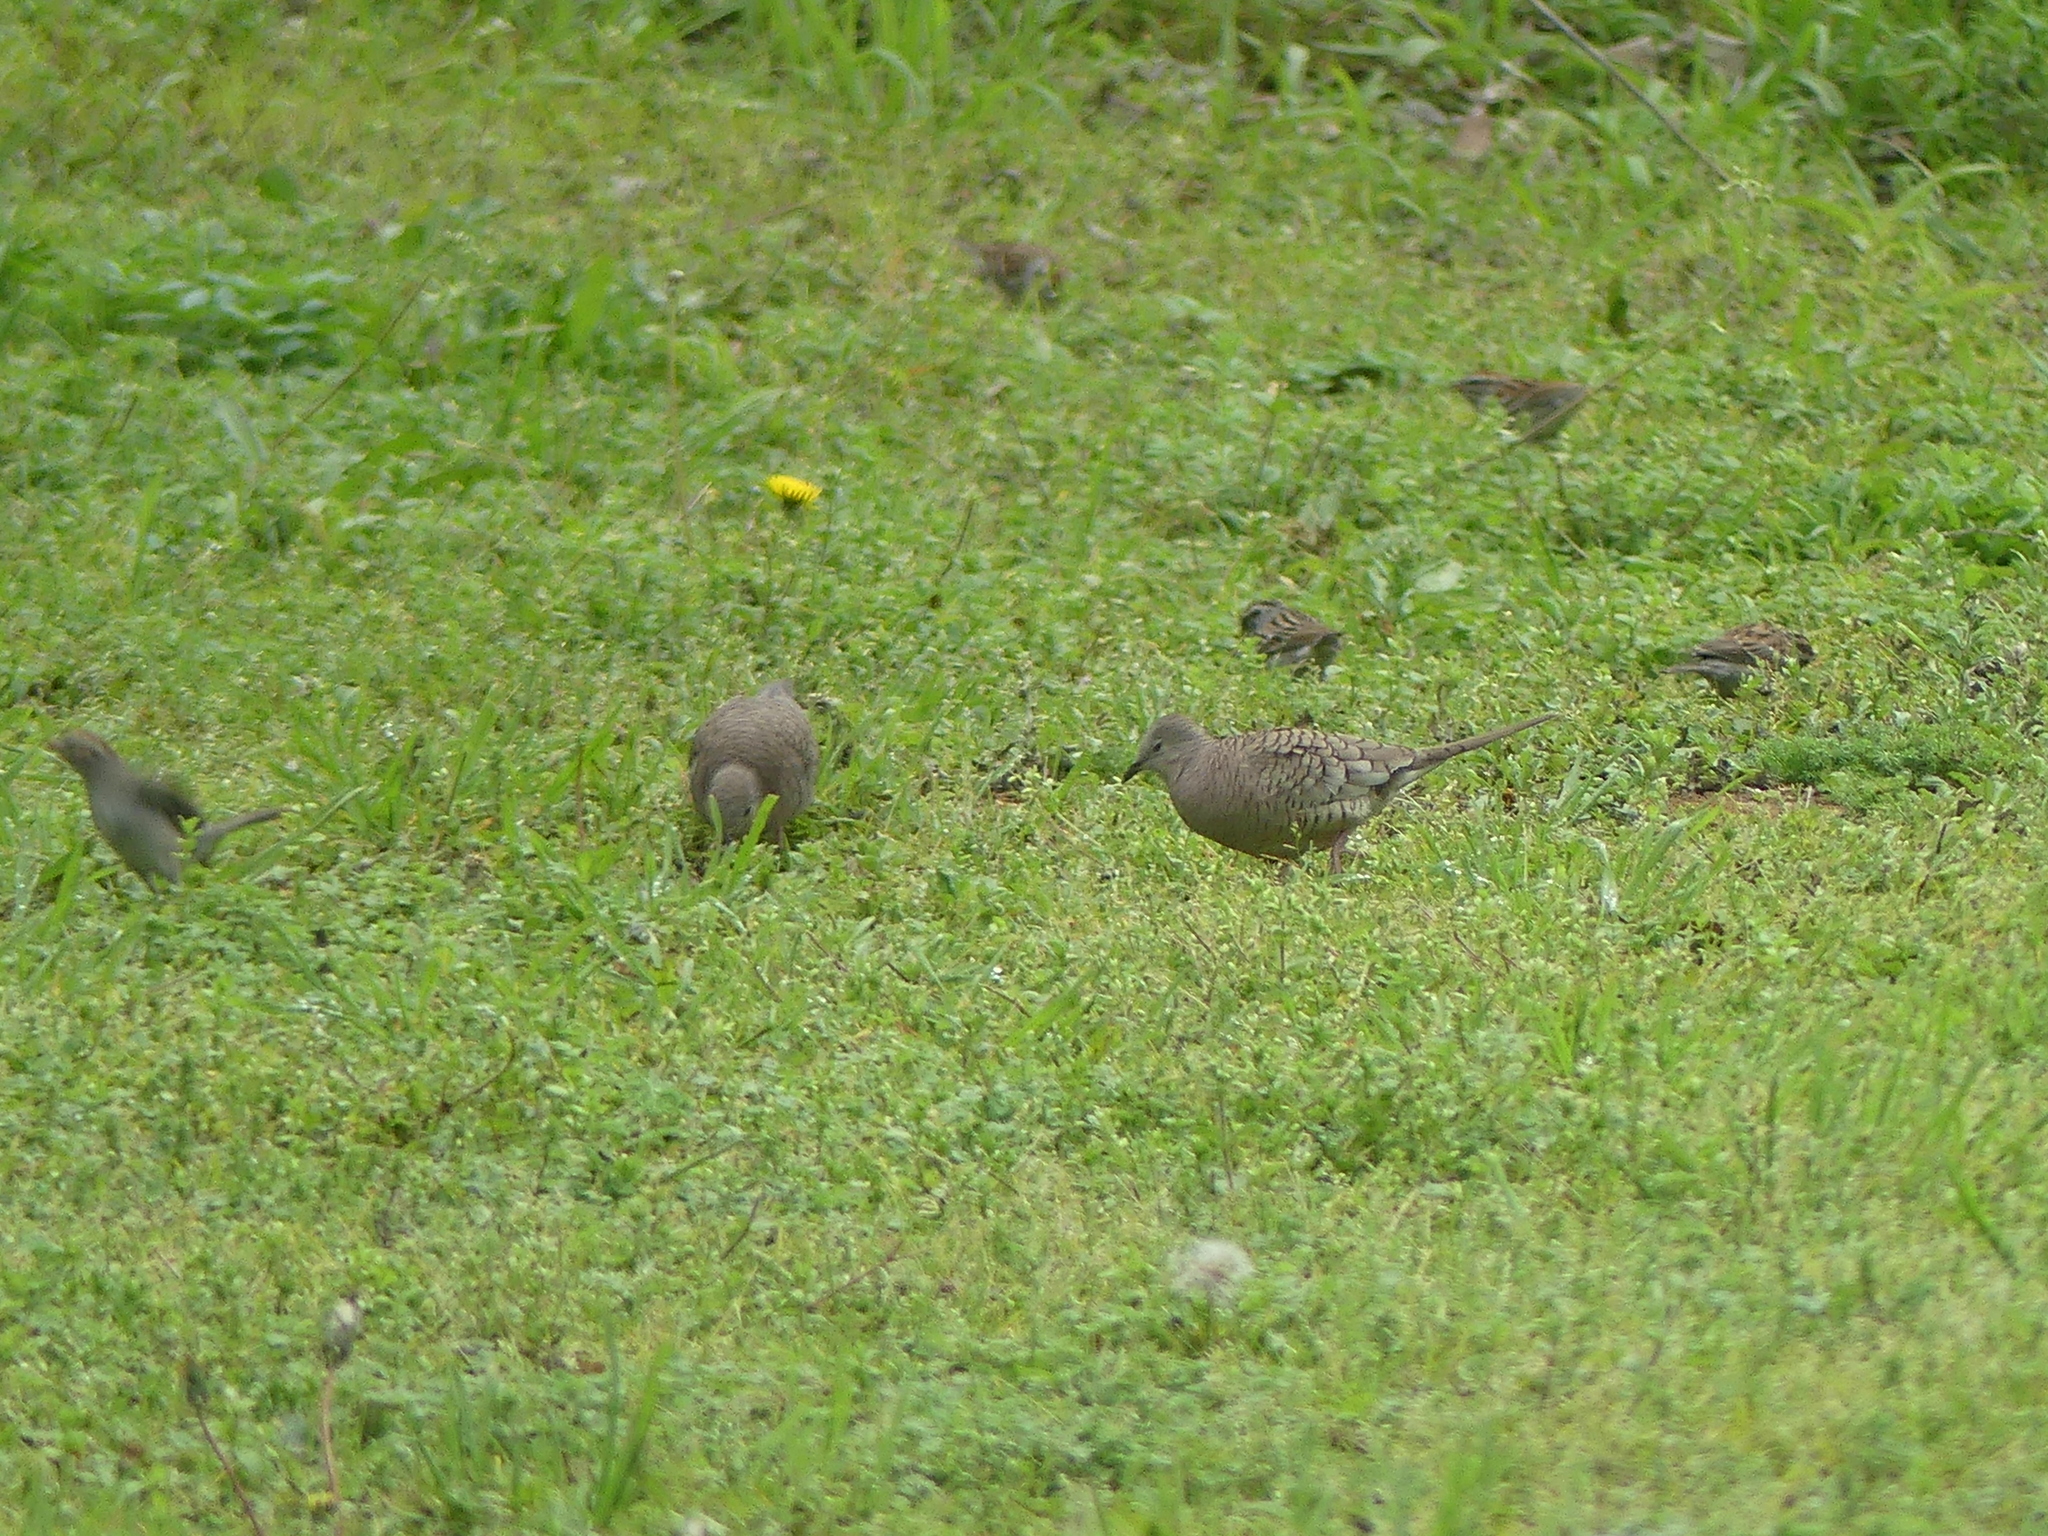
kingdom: Animalia
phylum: Chordata
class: Aves
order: Columbiformes
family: Columbidae
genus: Columbina
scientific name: Columbina inca
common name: Inca dove
